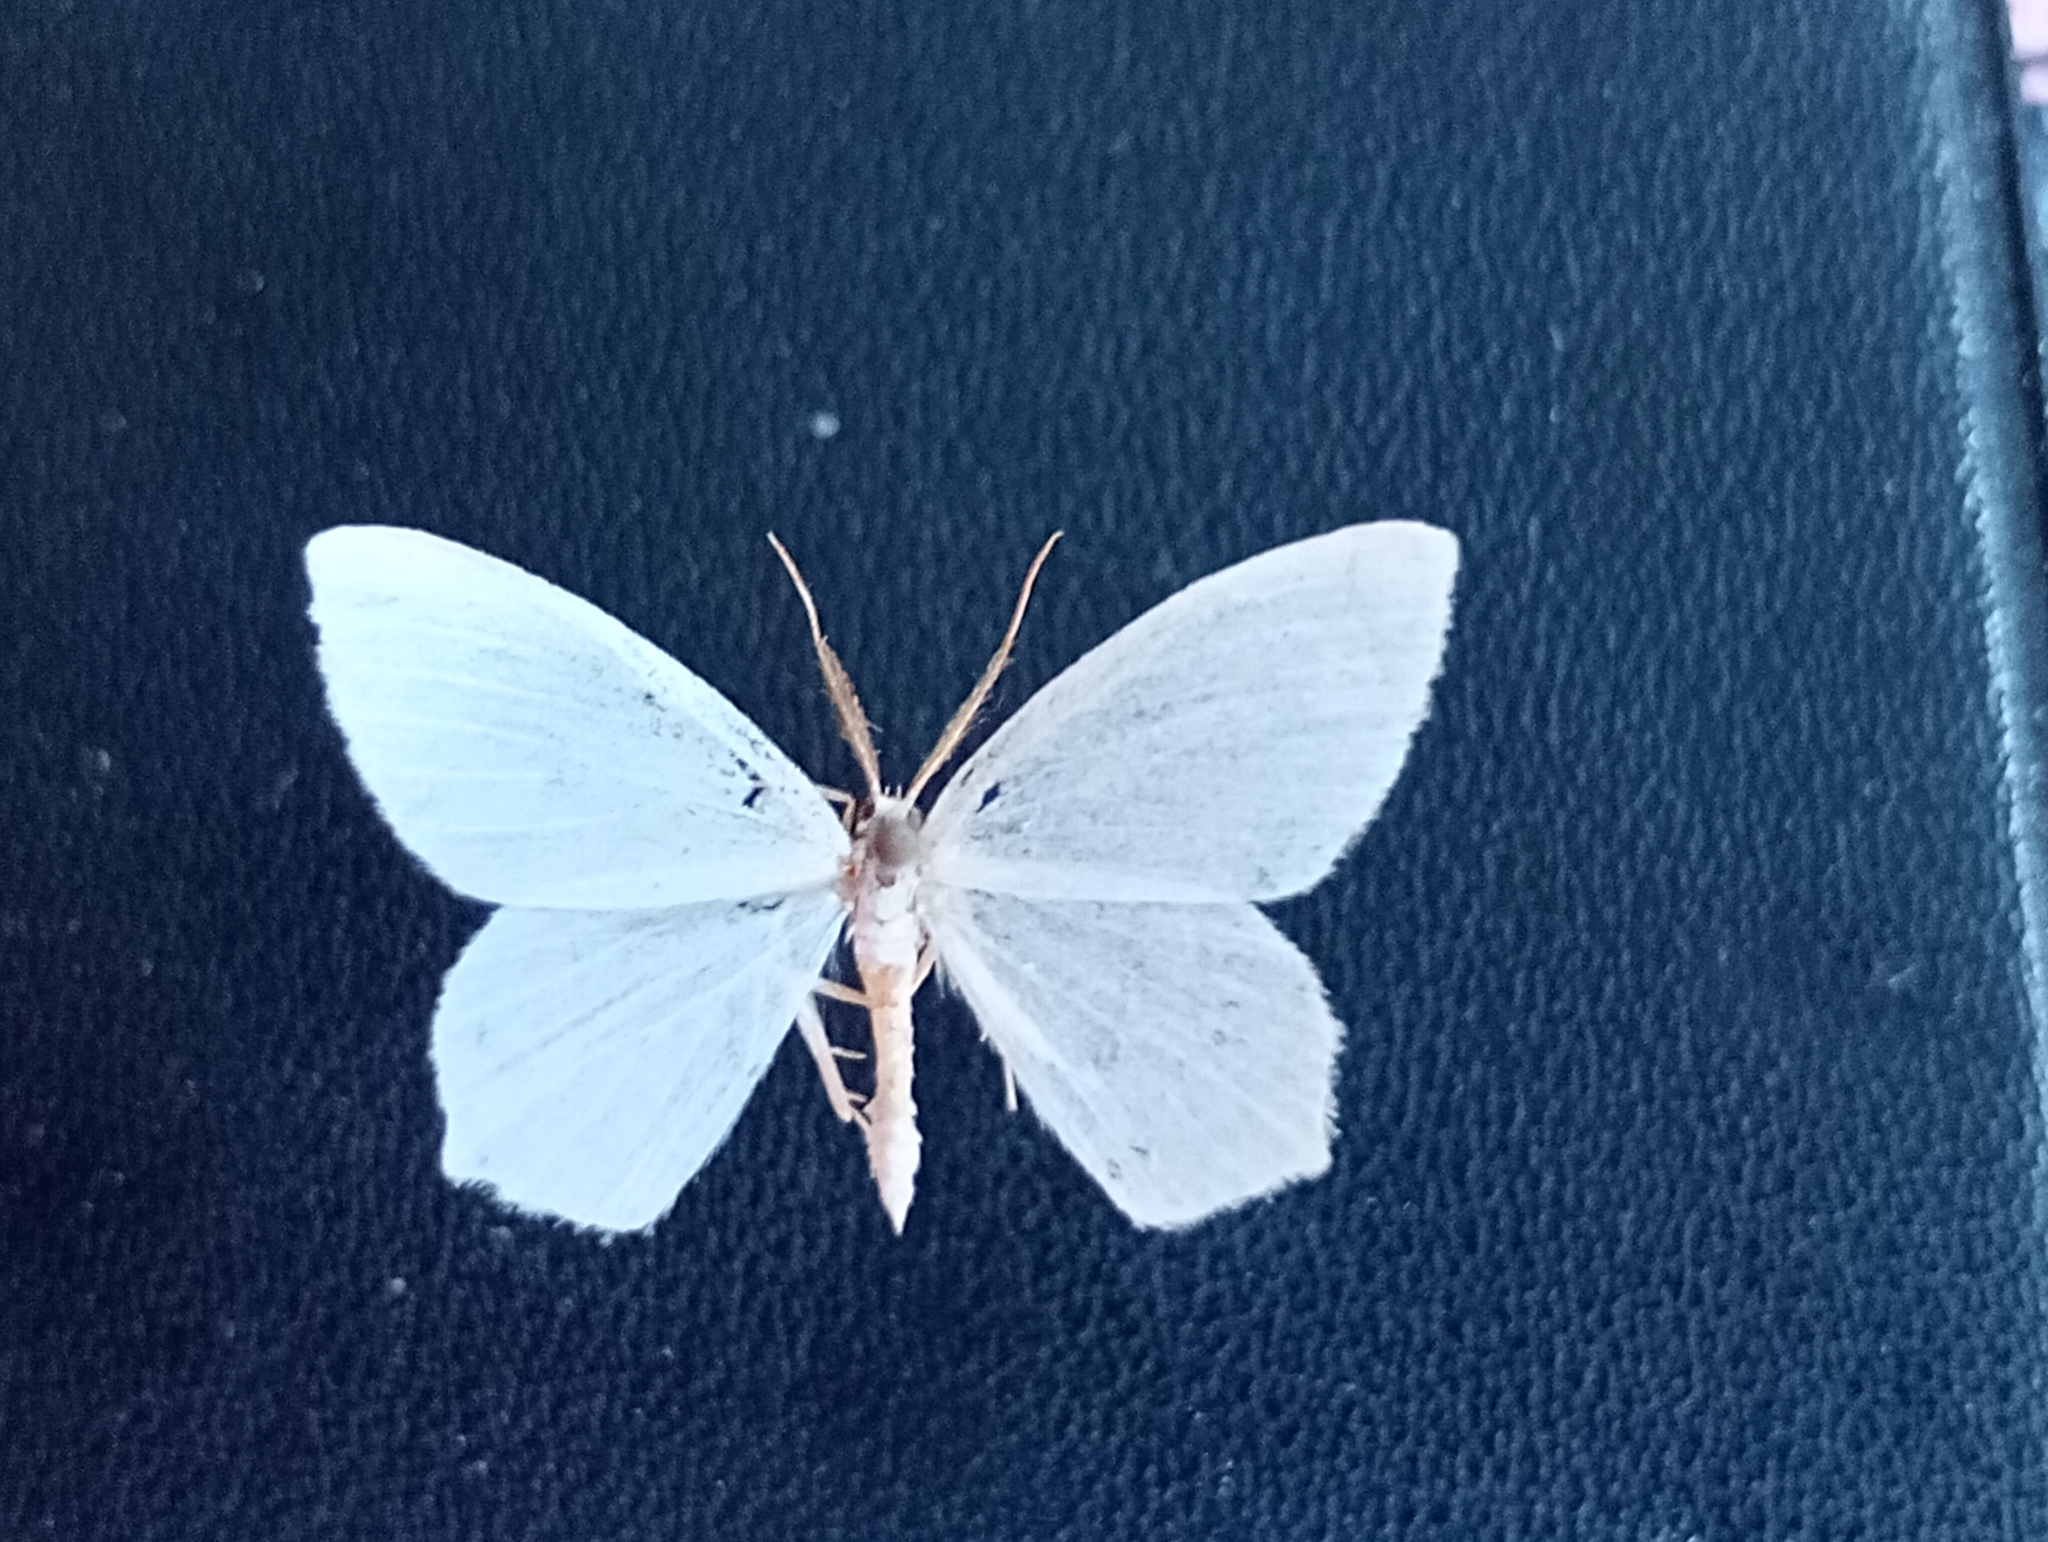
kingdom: Animalia
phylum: Arthropoda
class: Insecta
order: Lepidoptera
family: Geometridae
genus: Jodis
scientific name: Jodis lactearia
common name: Little emerald
